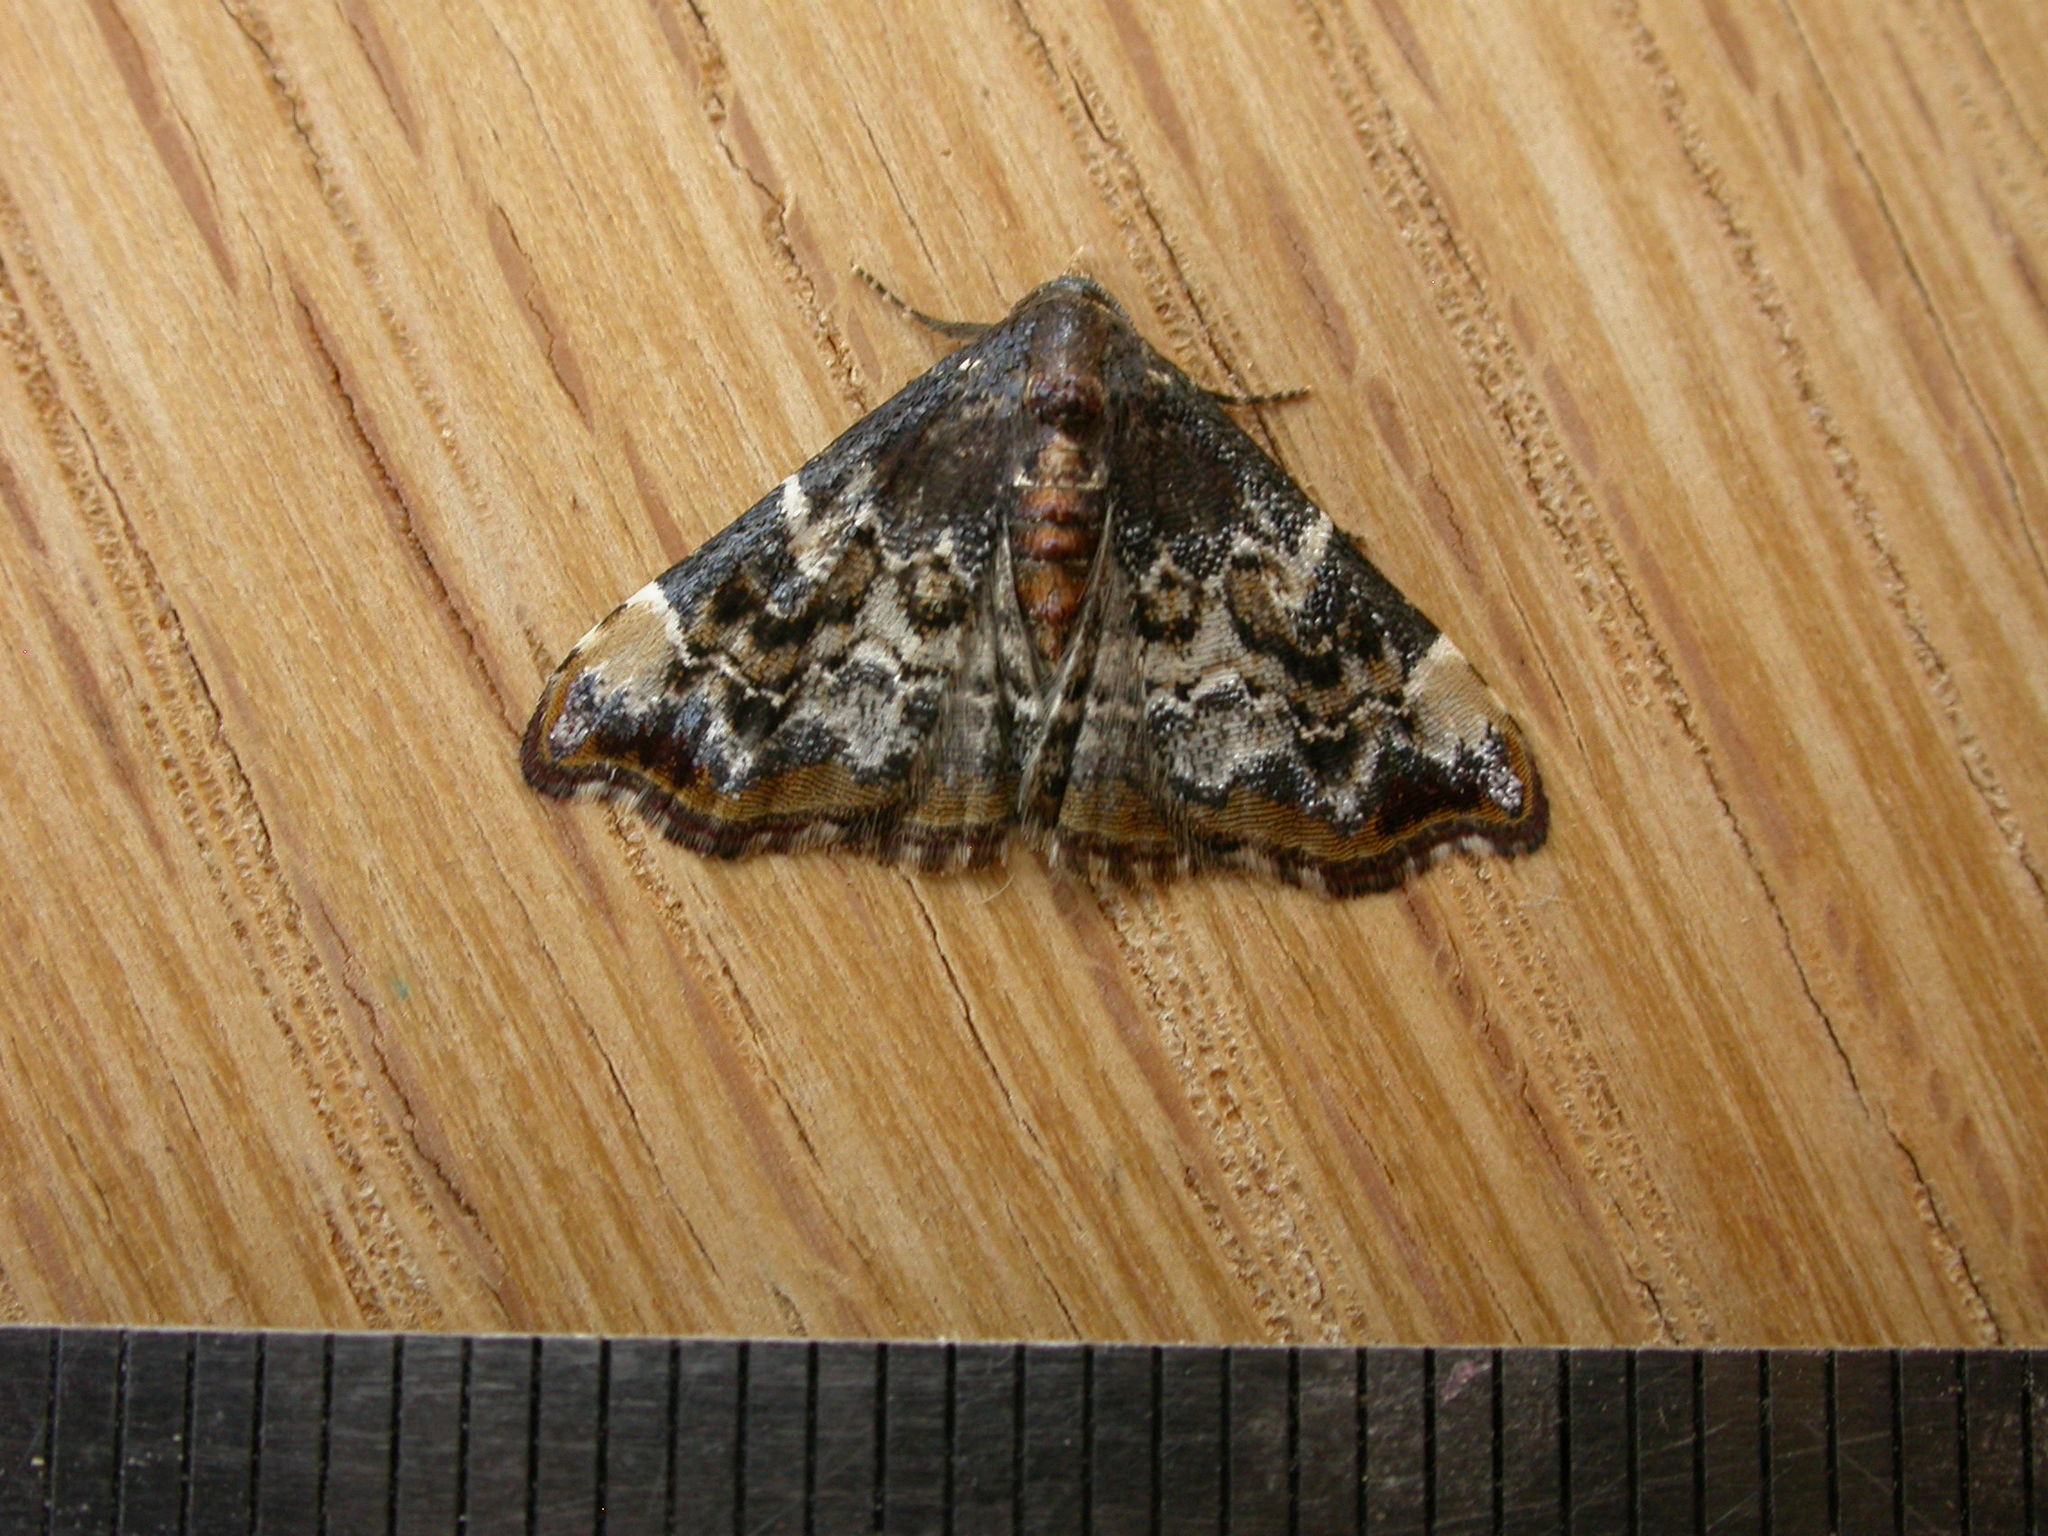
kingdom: Animalia
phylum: Arthropoda
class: Insecta
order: Lepidoptera
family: Erebidae
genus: Corgatha
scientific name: Corgatha sideropasta
